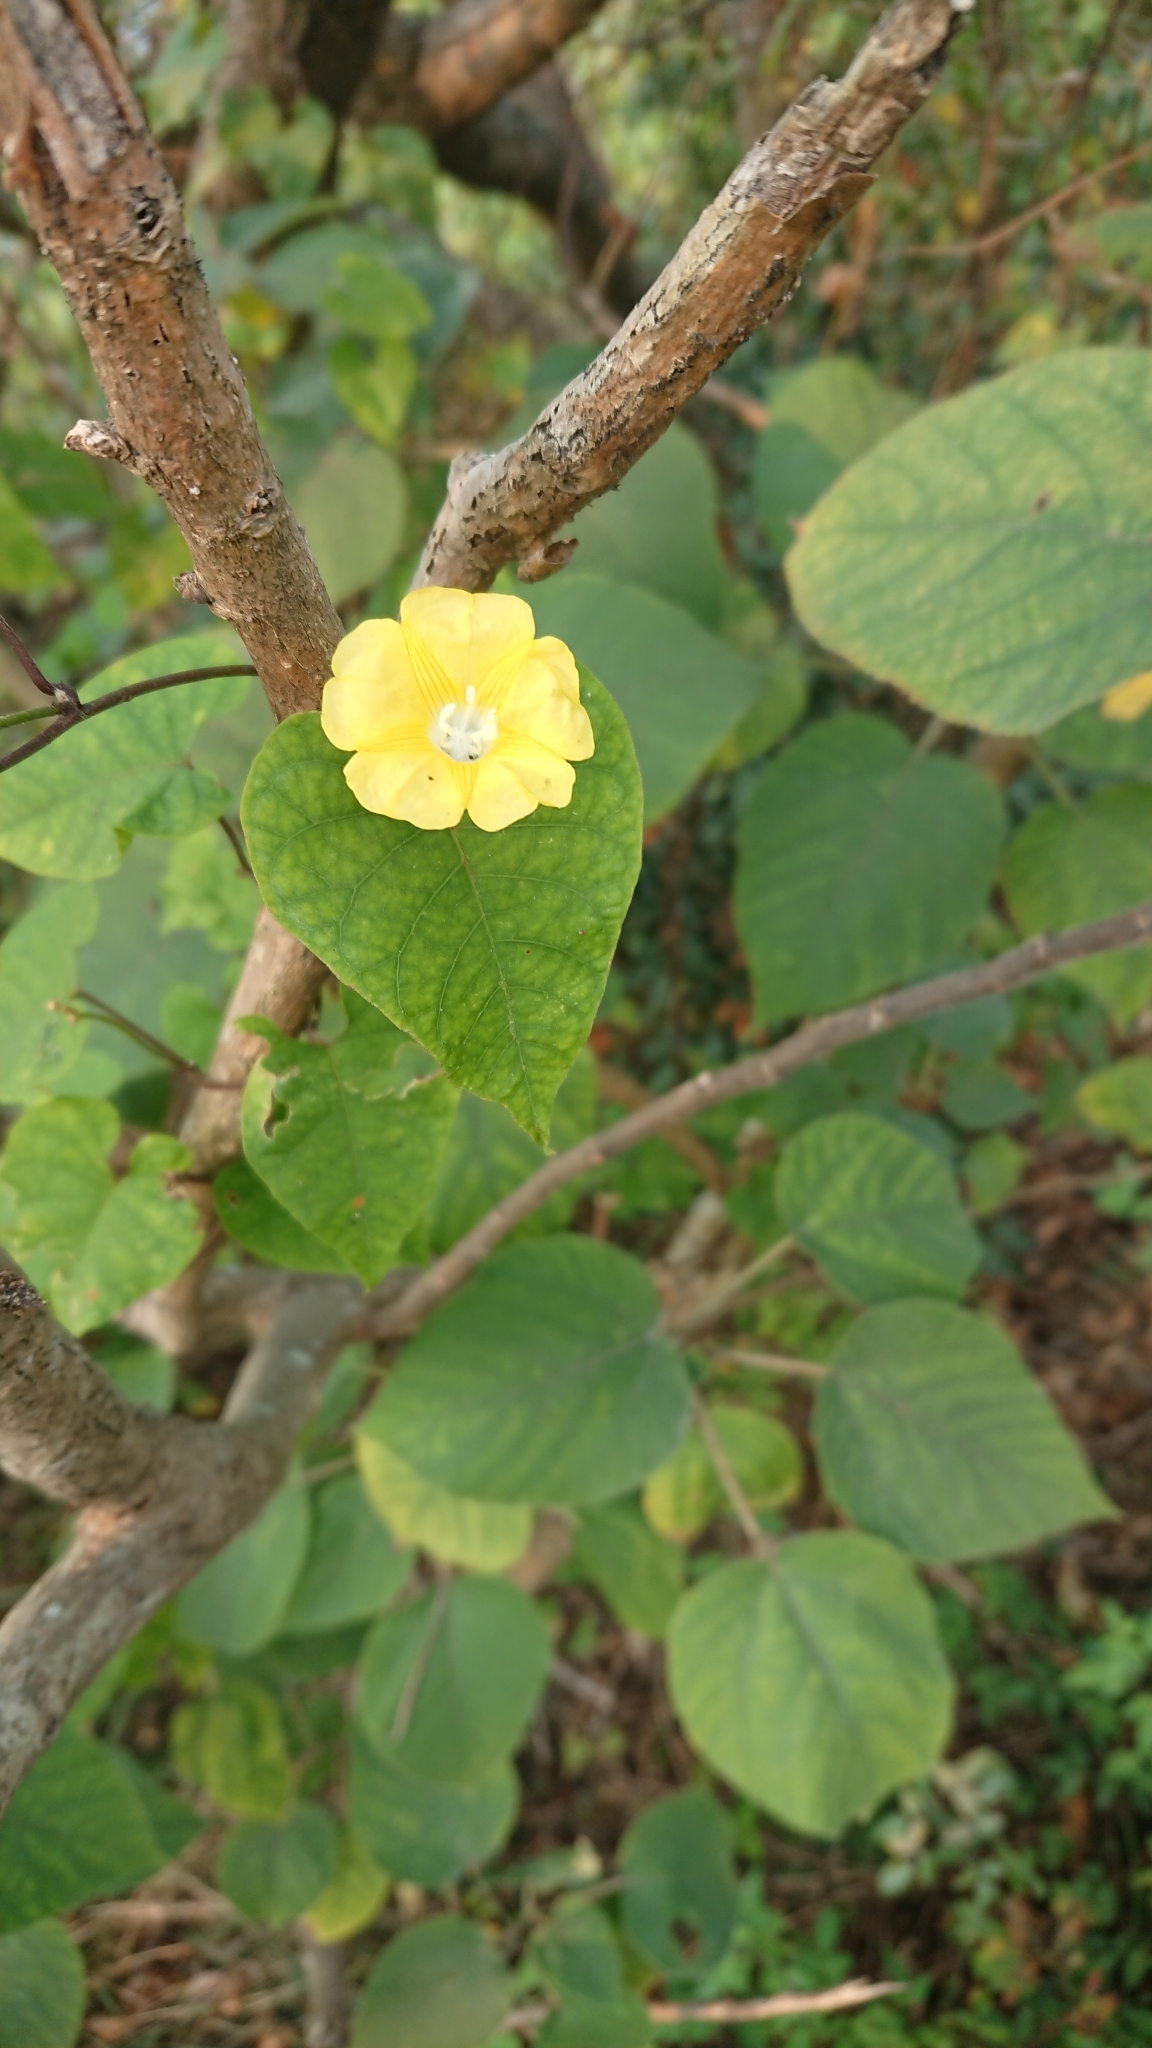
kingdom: Plantae
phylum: Tracheophyta
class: Magnoliopsida
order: Solanales
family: Convolvulaceae
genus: Merremia
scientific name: Merremia gemella
